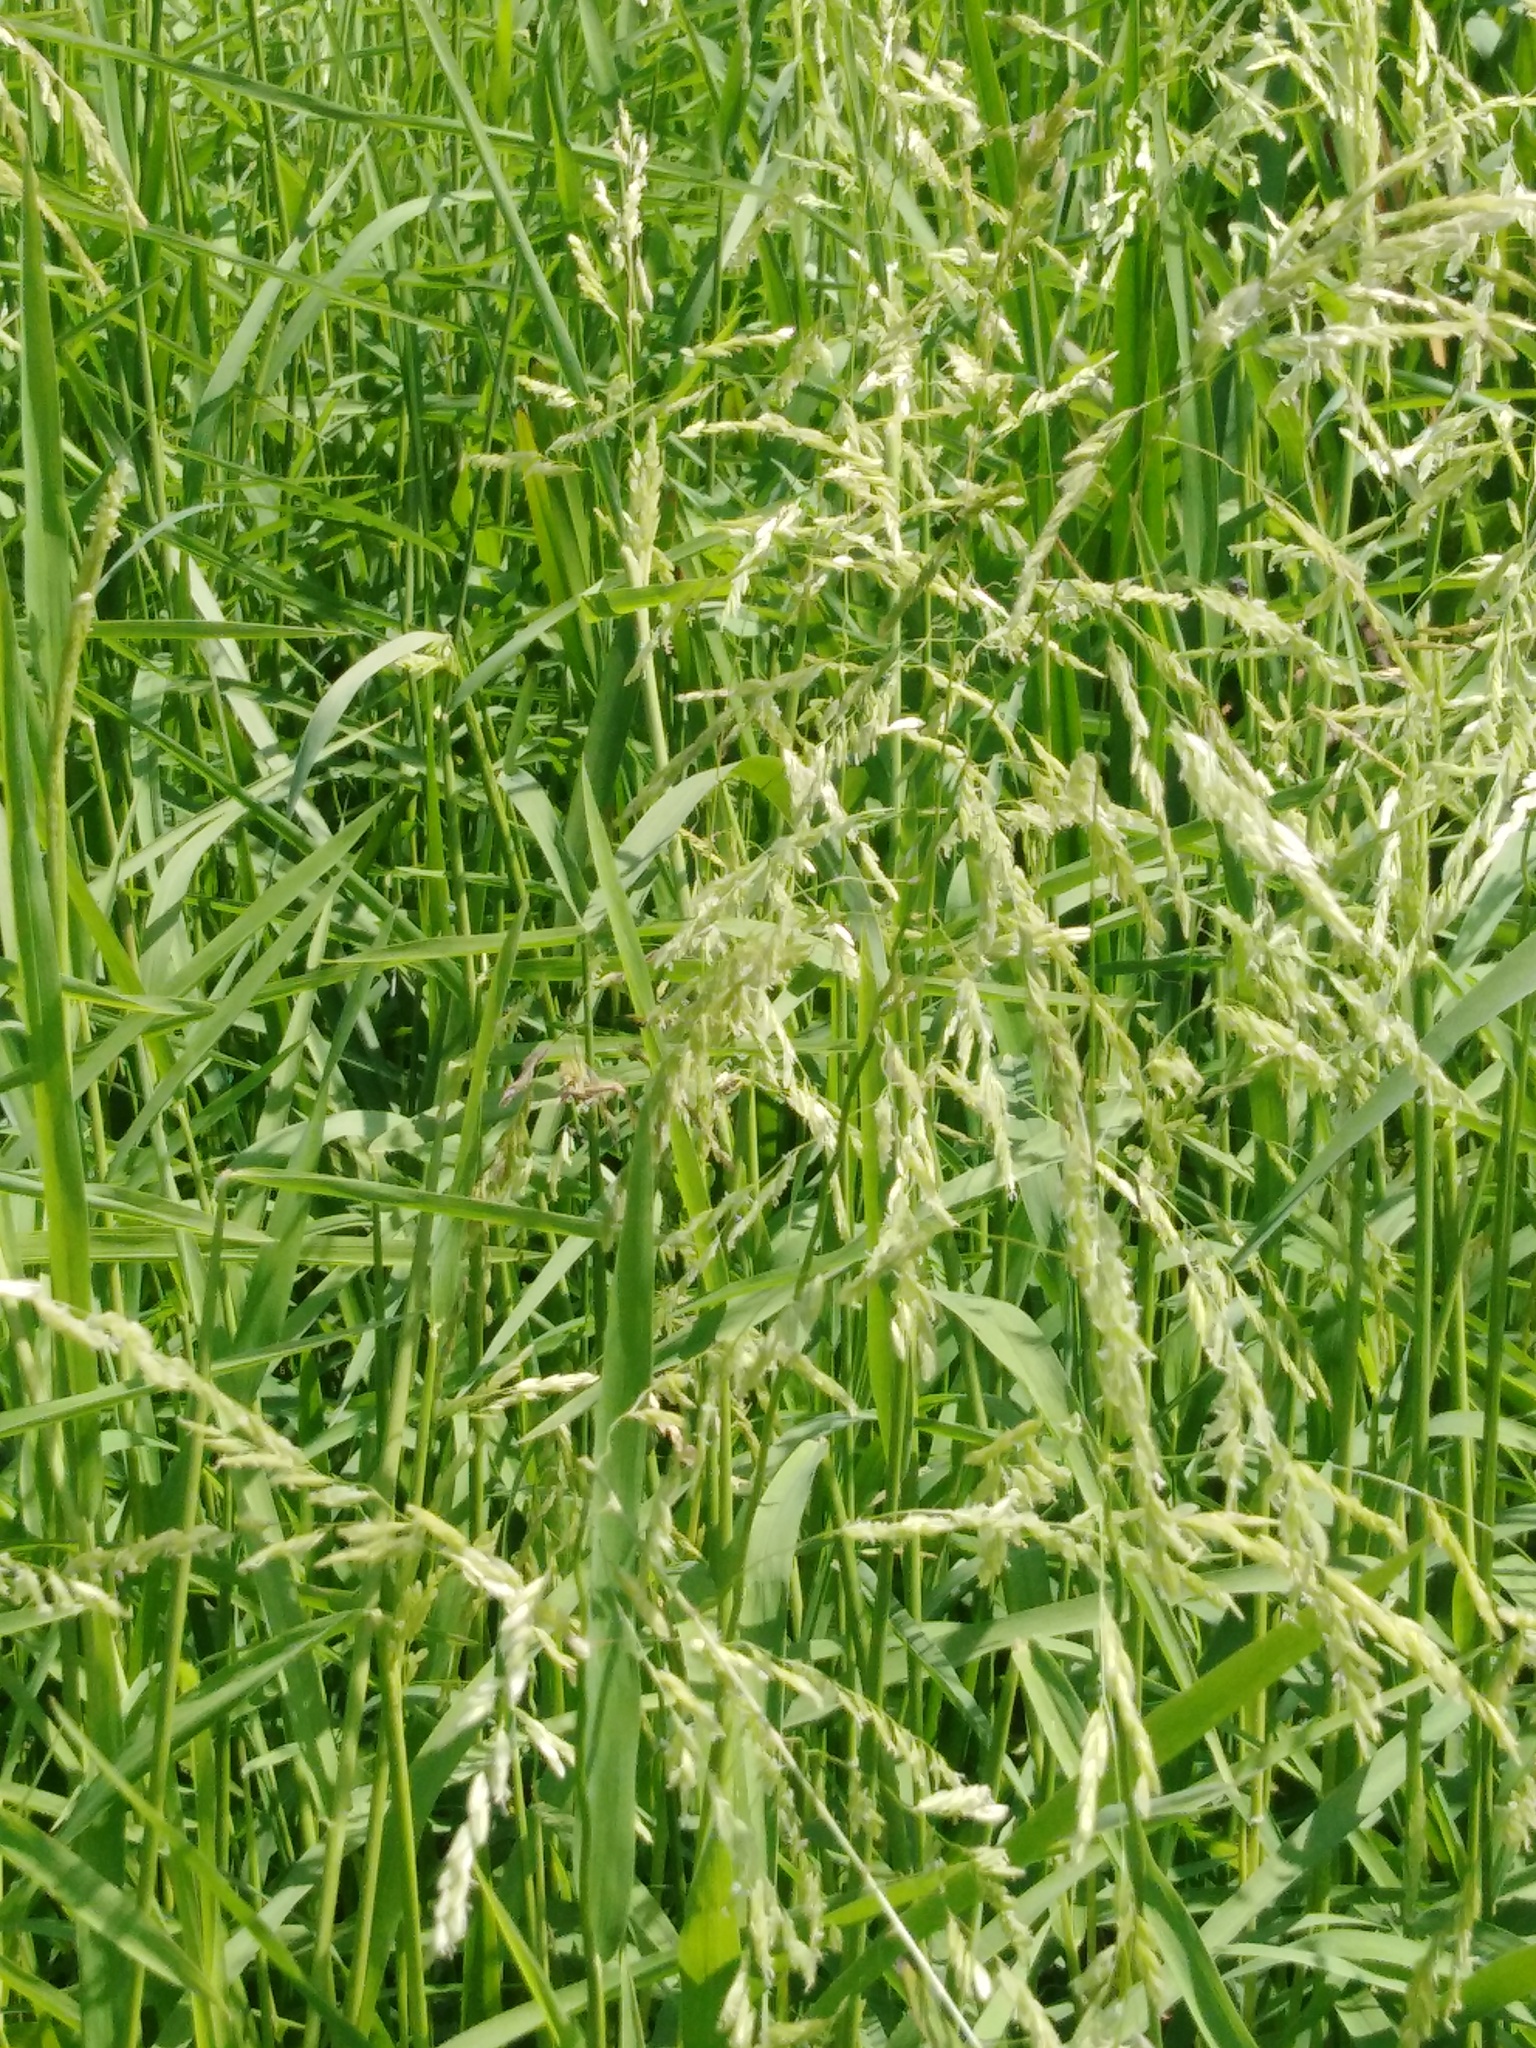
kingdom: Plantae
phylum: Tracheophyta
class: Liliopsida
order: Poales
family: Poaceae
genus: Leersia
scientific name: Leersia oryzoides
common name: Cut-grass
